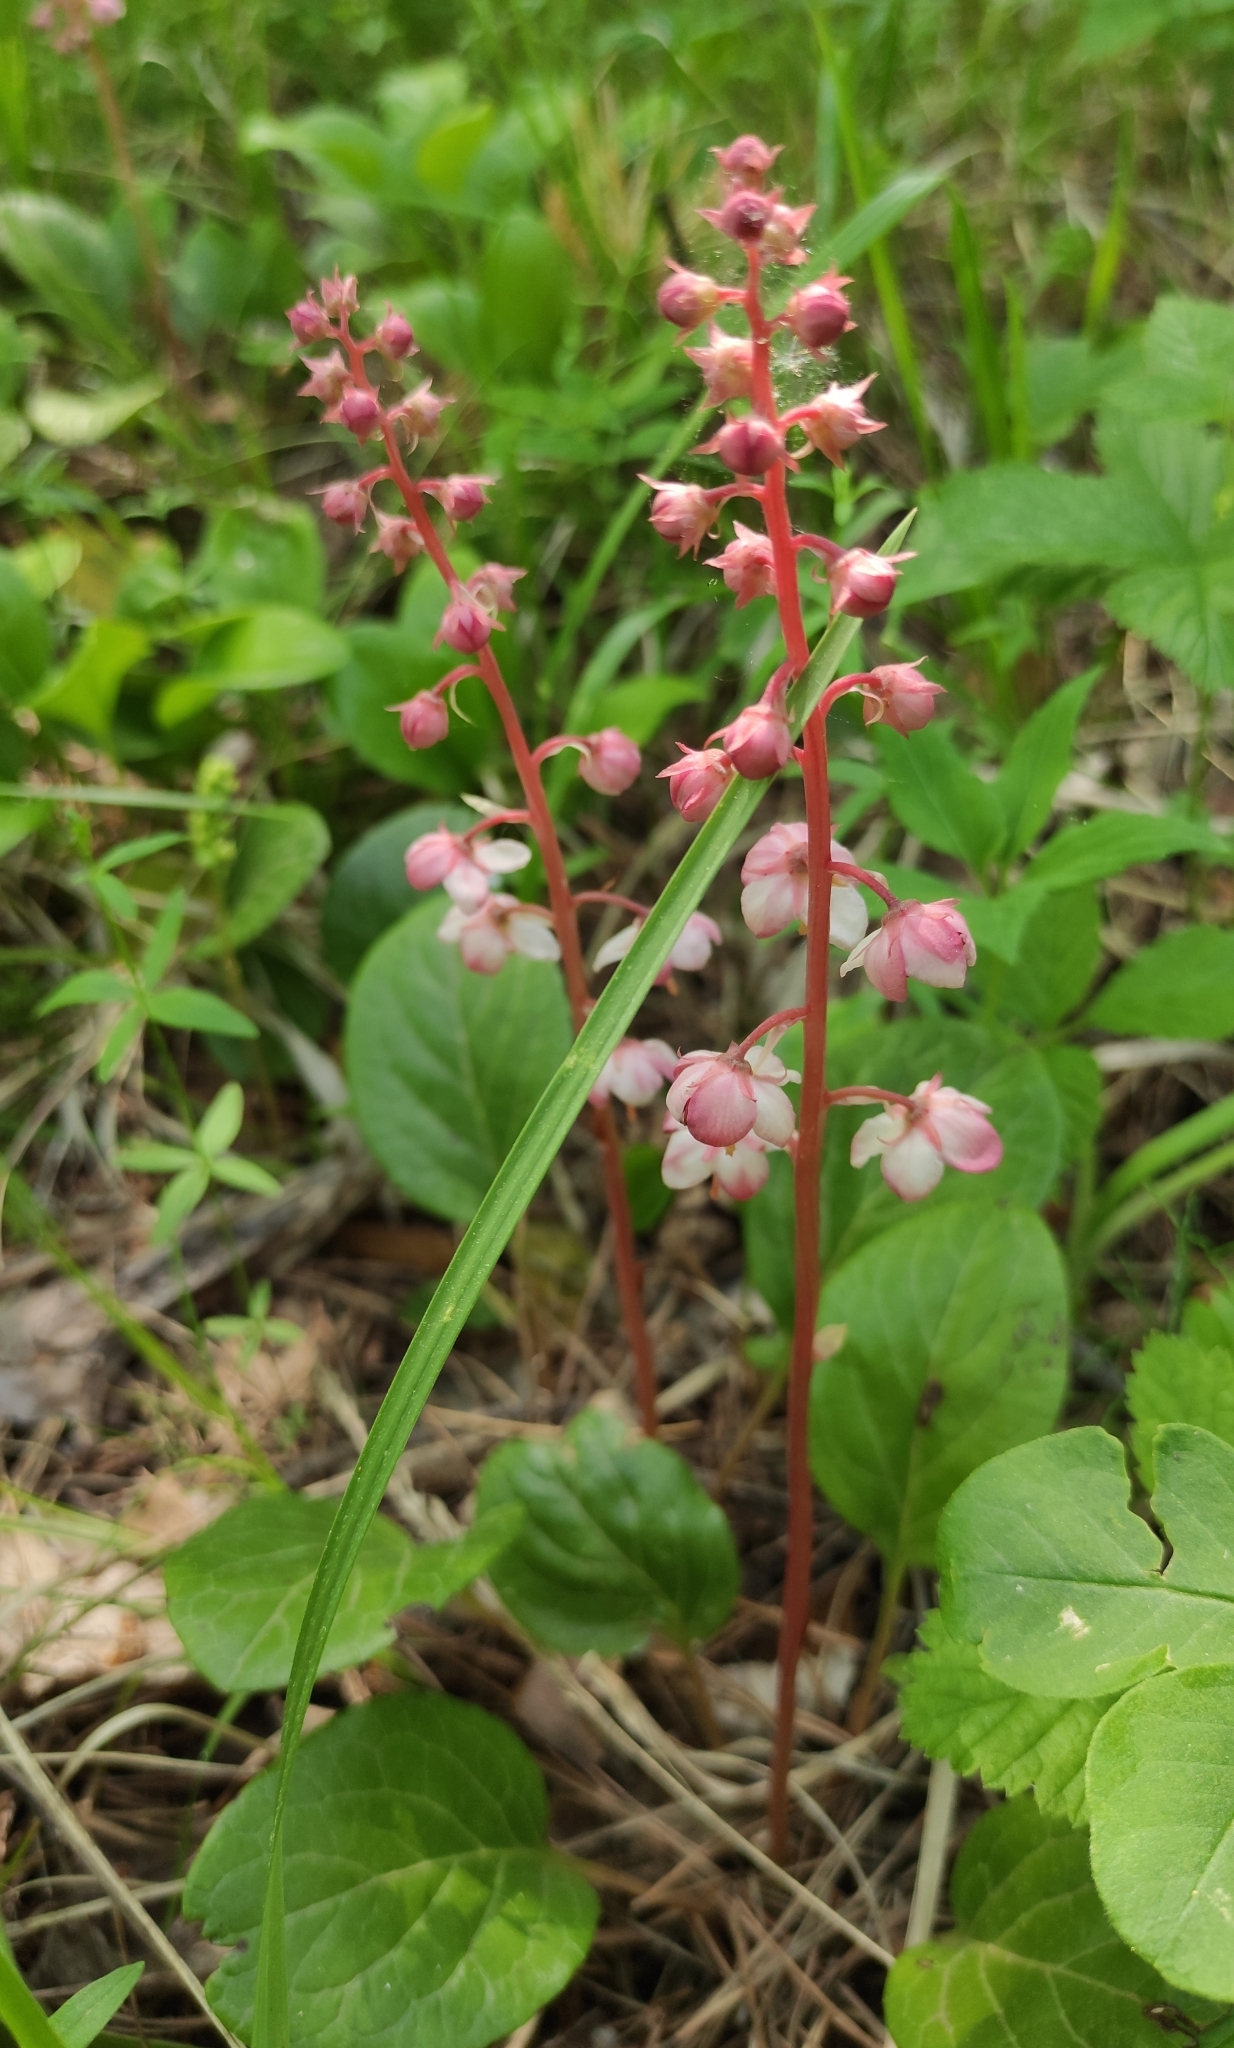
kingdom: Plantae
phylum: Tracheophyta
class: Magnoliopsida
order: Ericales
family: Ericaceae
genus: Pyrola
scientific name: Pyrola asarifolia
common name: Bog wintergreen
